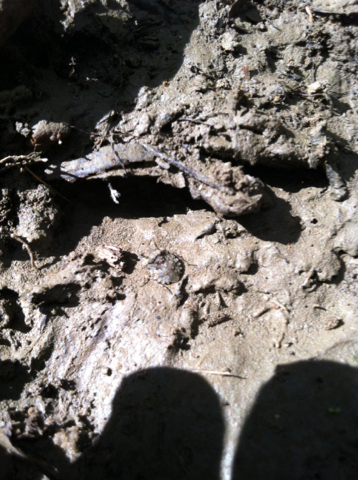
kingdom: Animalia
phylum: Arthropoda
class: Insecta
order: Hemiptera
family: Gelastocoridae
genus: Gelastocoris
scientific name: Gelastocoris oculatus
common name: Toad bug
